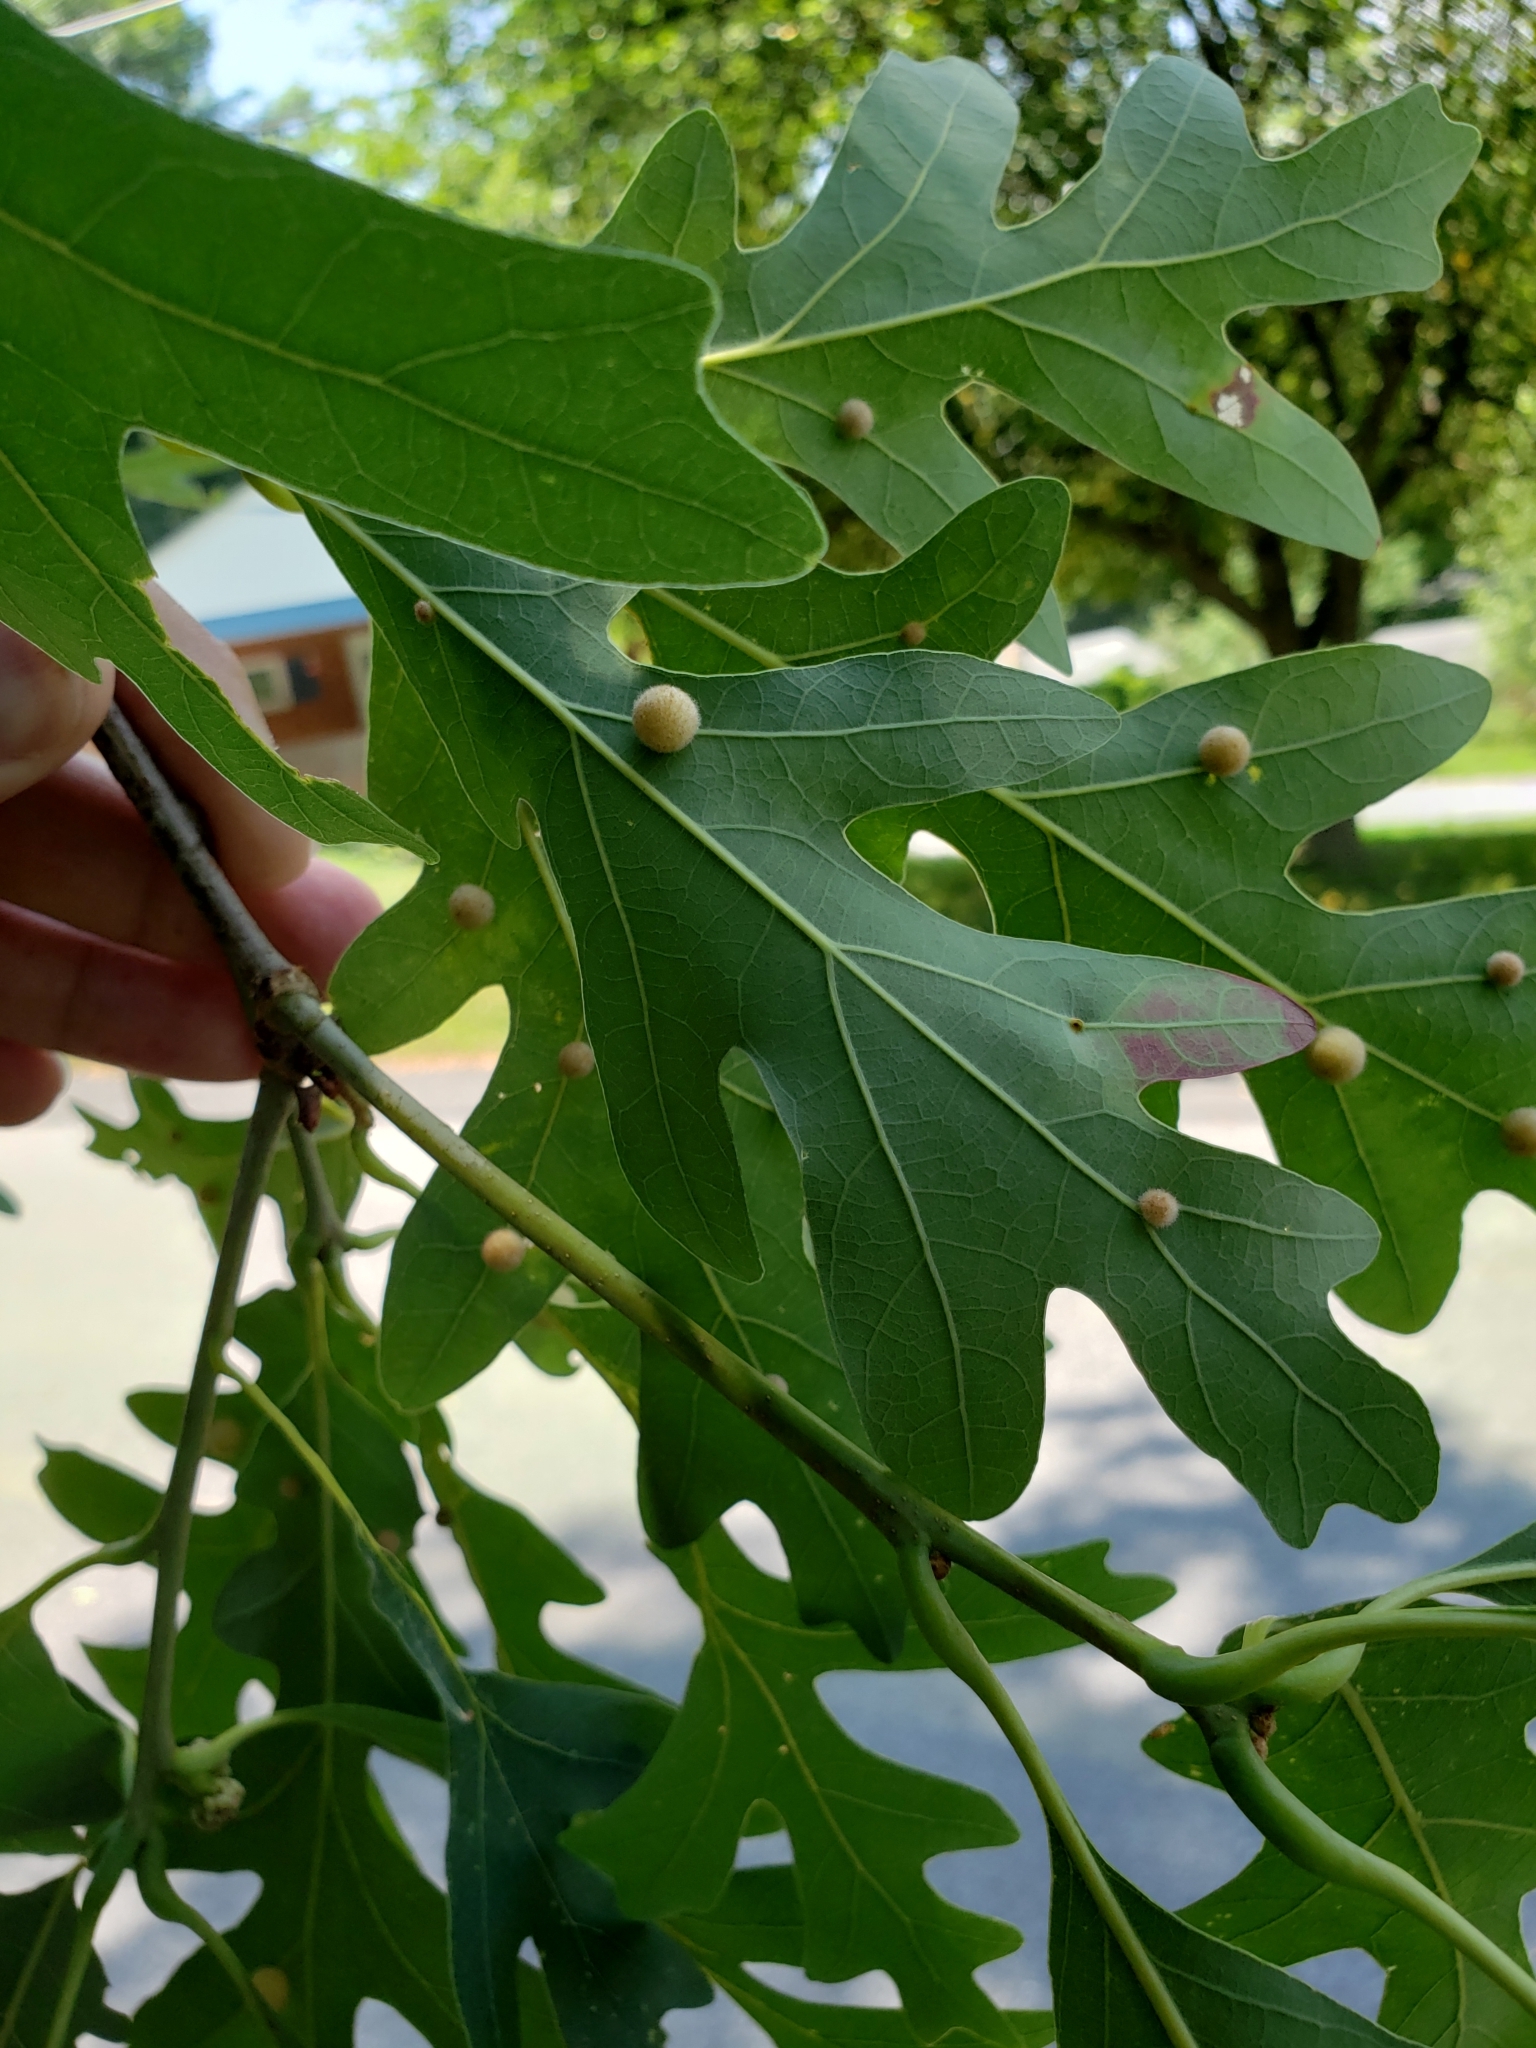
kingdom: Animalia
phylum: Arthropoda
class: Insecta
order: Hymenoptera
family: Cynipidae
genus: Philonix
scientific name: Philonix fulvicollis
